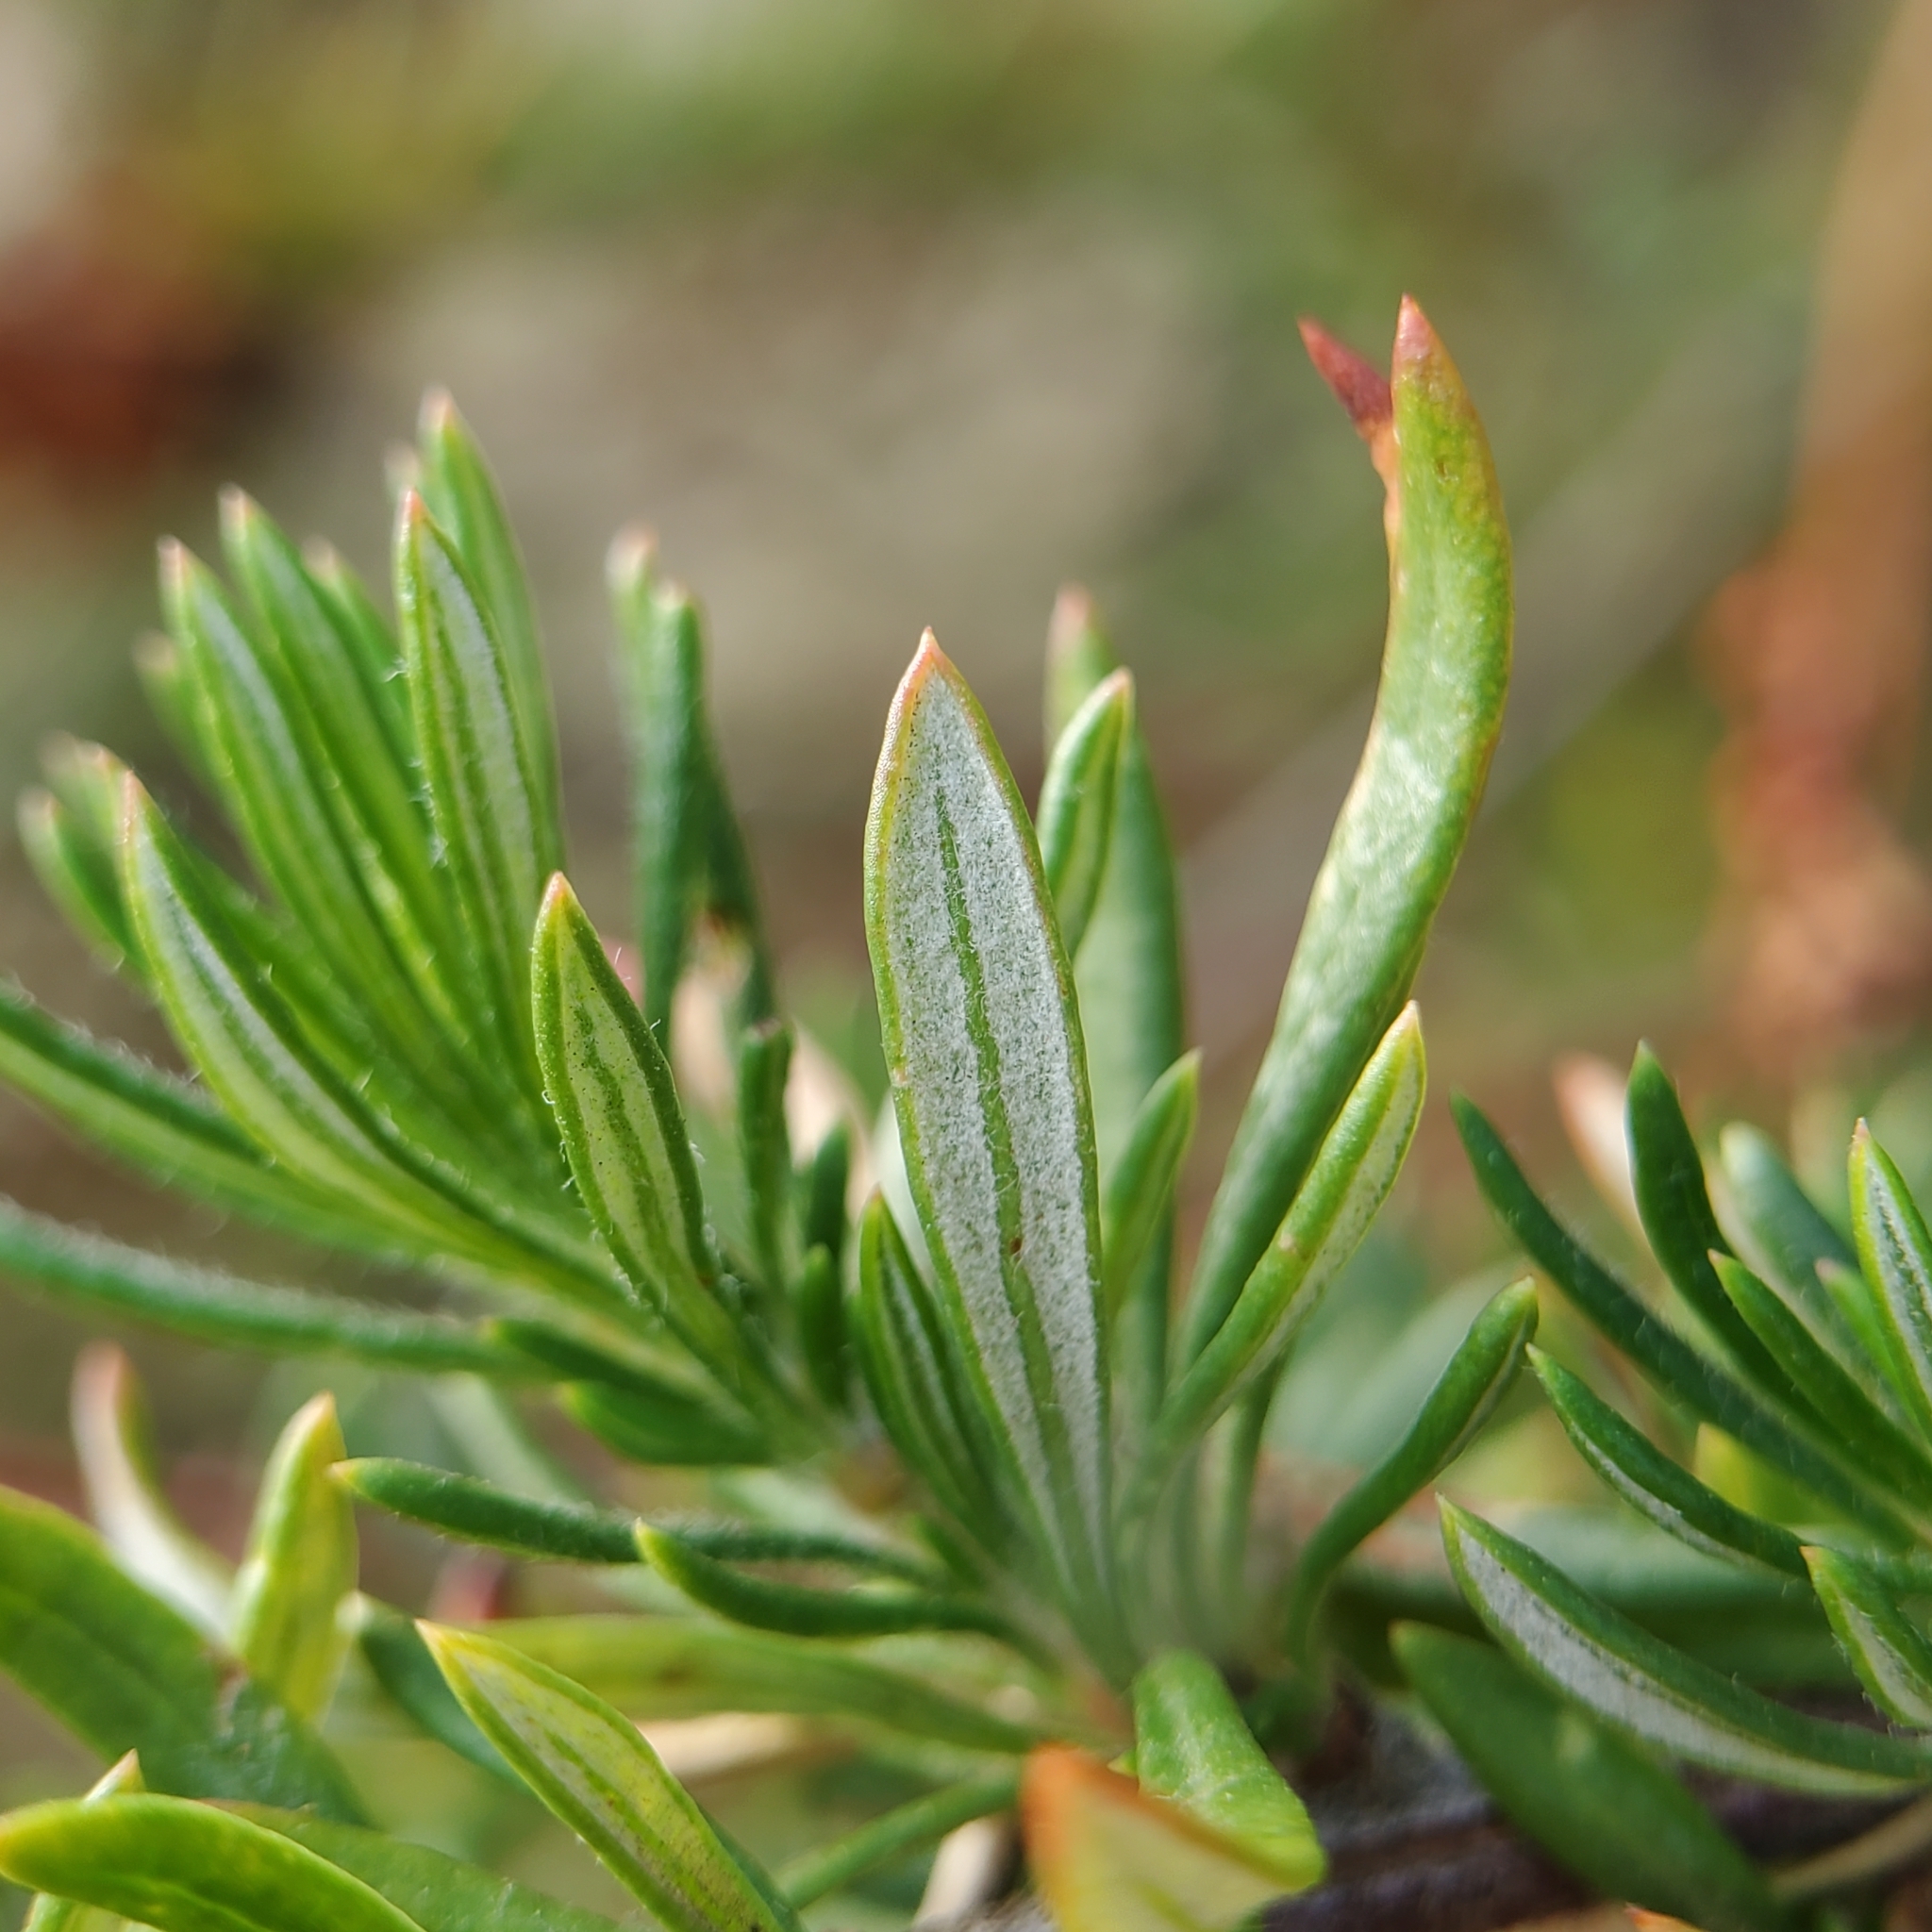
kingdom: Plantae
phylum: Tracheophyta
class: Magnoliopsida
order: Caryophyllales
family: Polygonaceae
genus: Eriogonum
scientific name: Eriogonum fasciculatum
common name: California wild buckwheat
